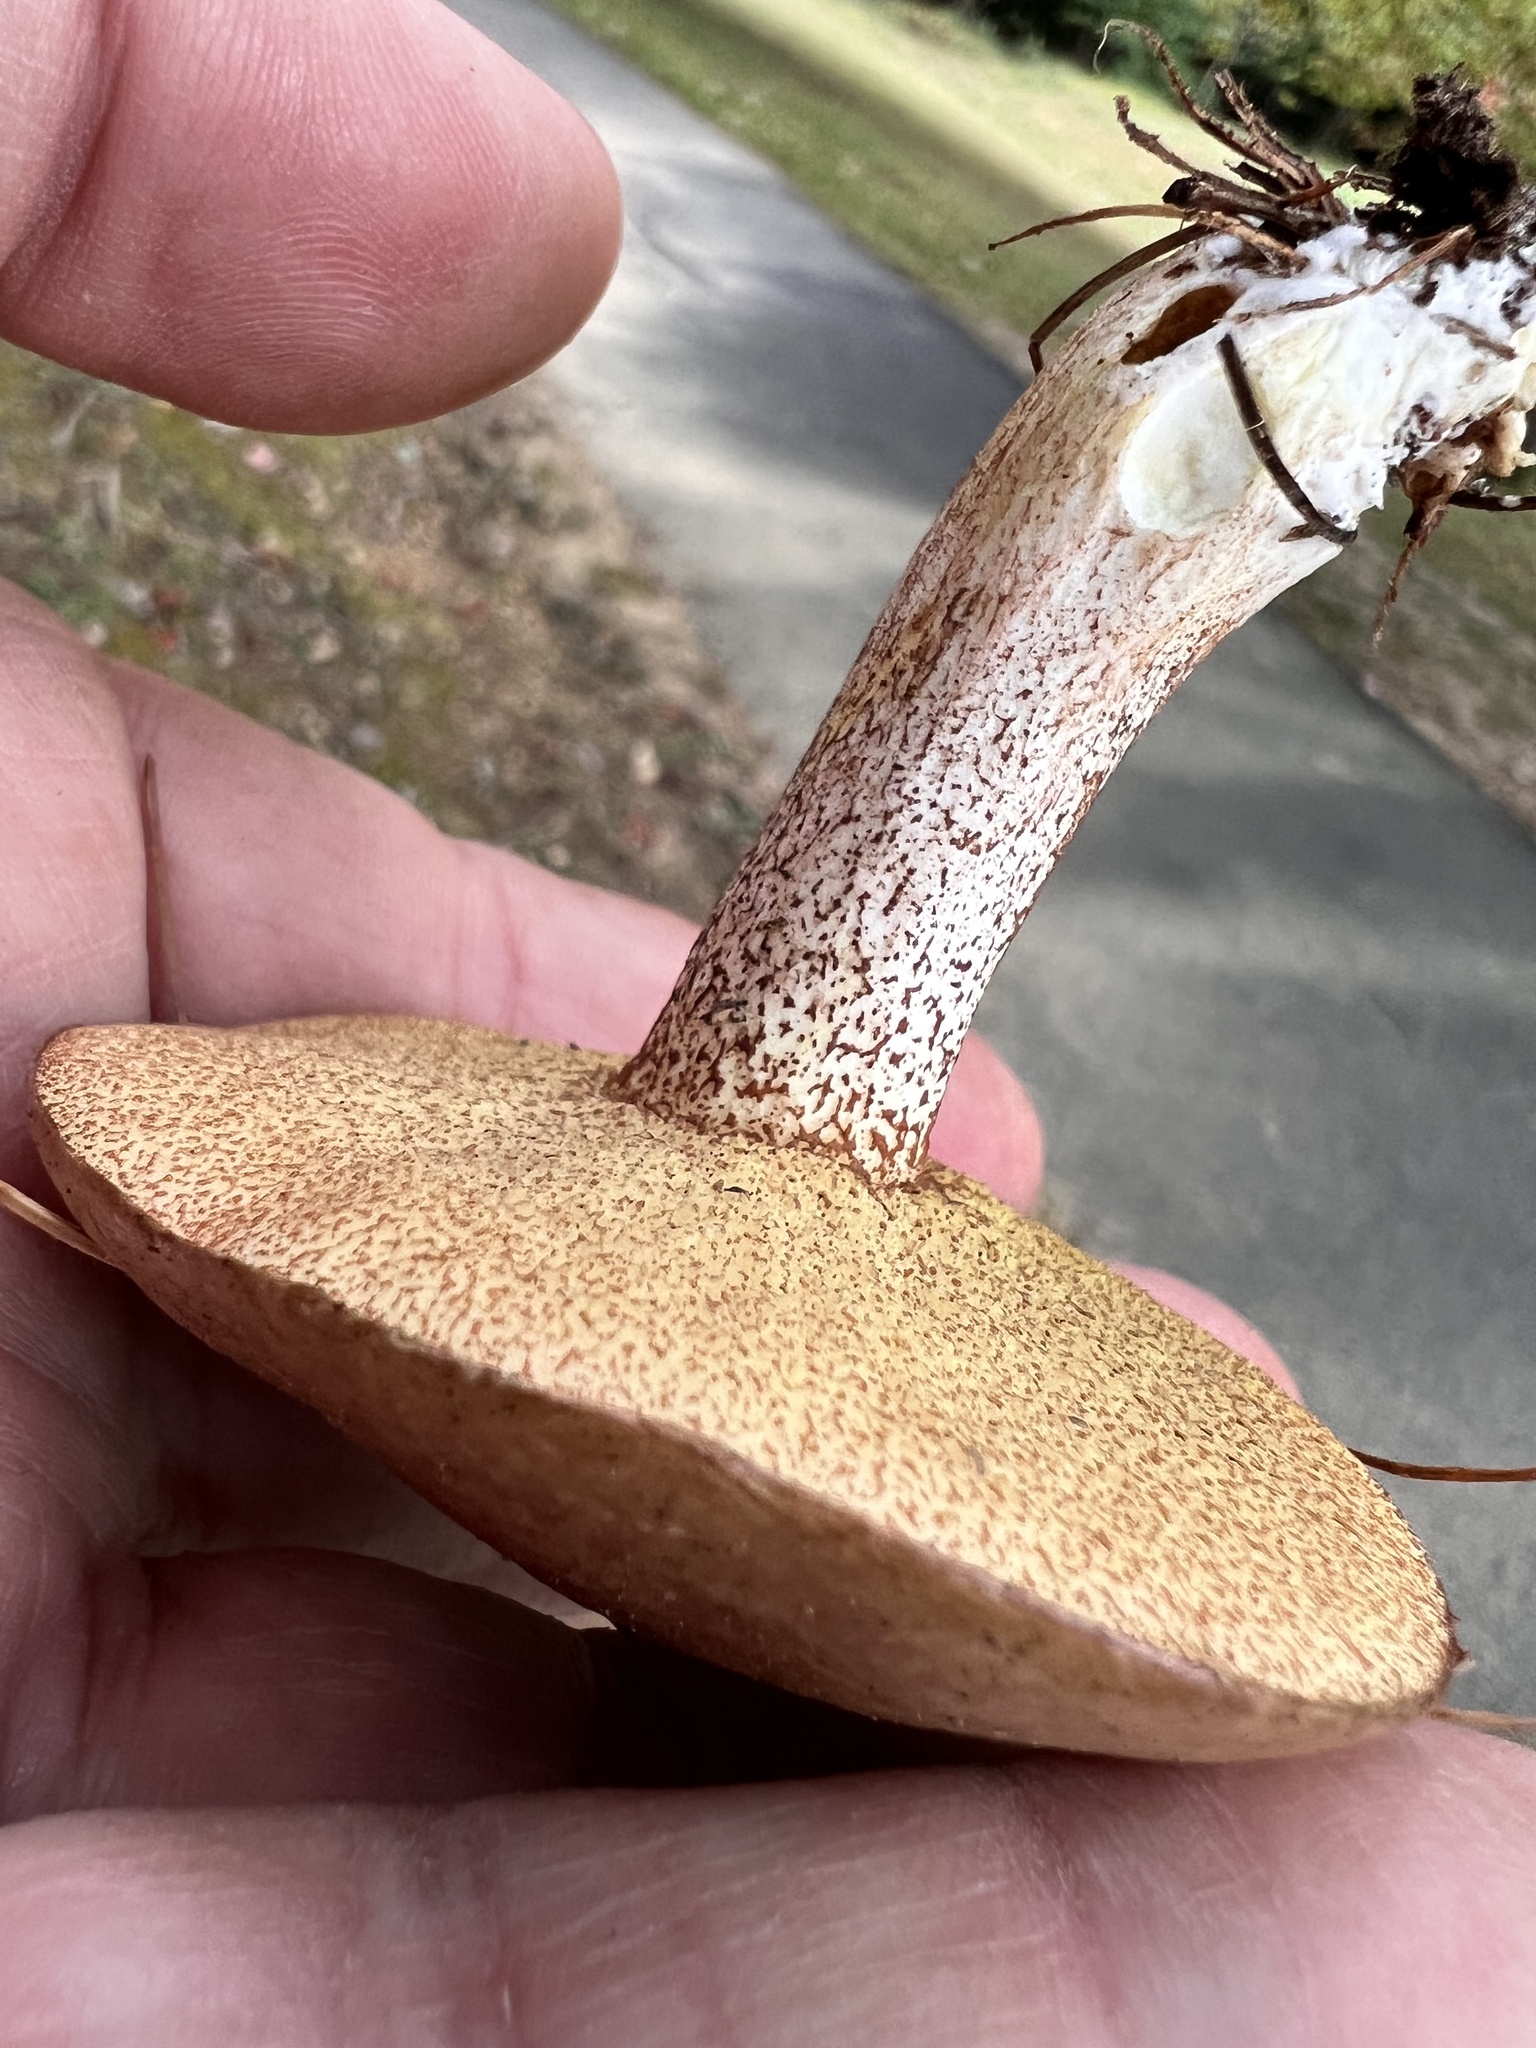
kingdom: Fungi
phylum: Basidiomycota
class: Agaricomycetes
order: Boletales
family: Suillaceae
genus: Fuscoboletinus
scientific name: Fuscoboletinus weaverae
